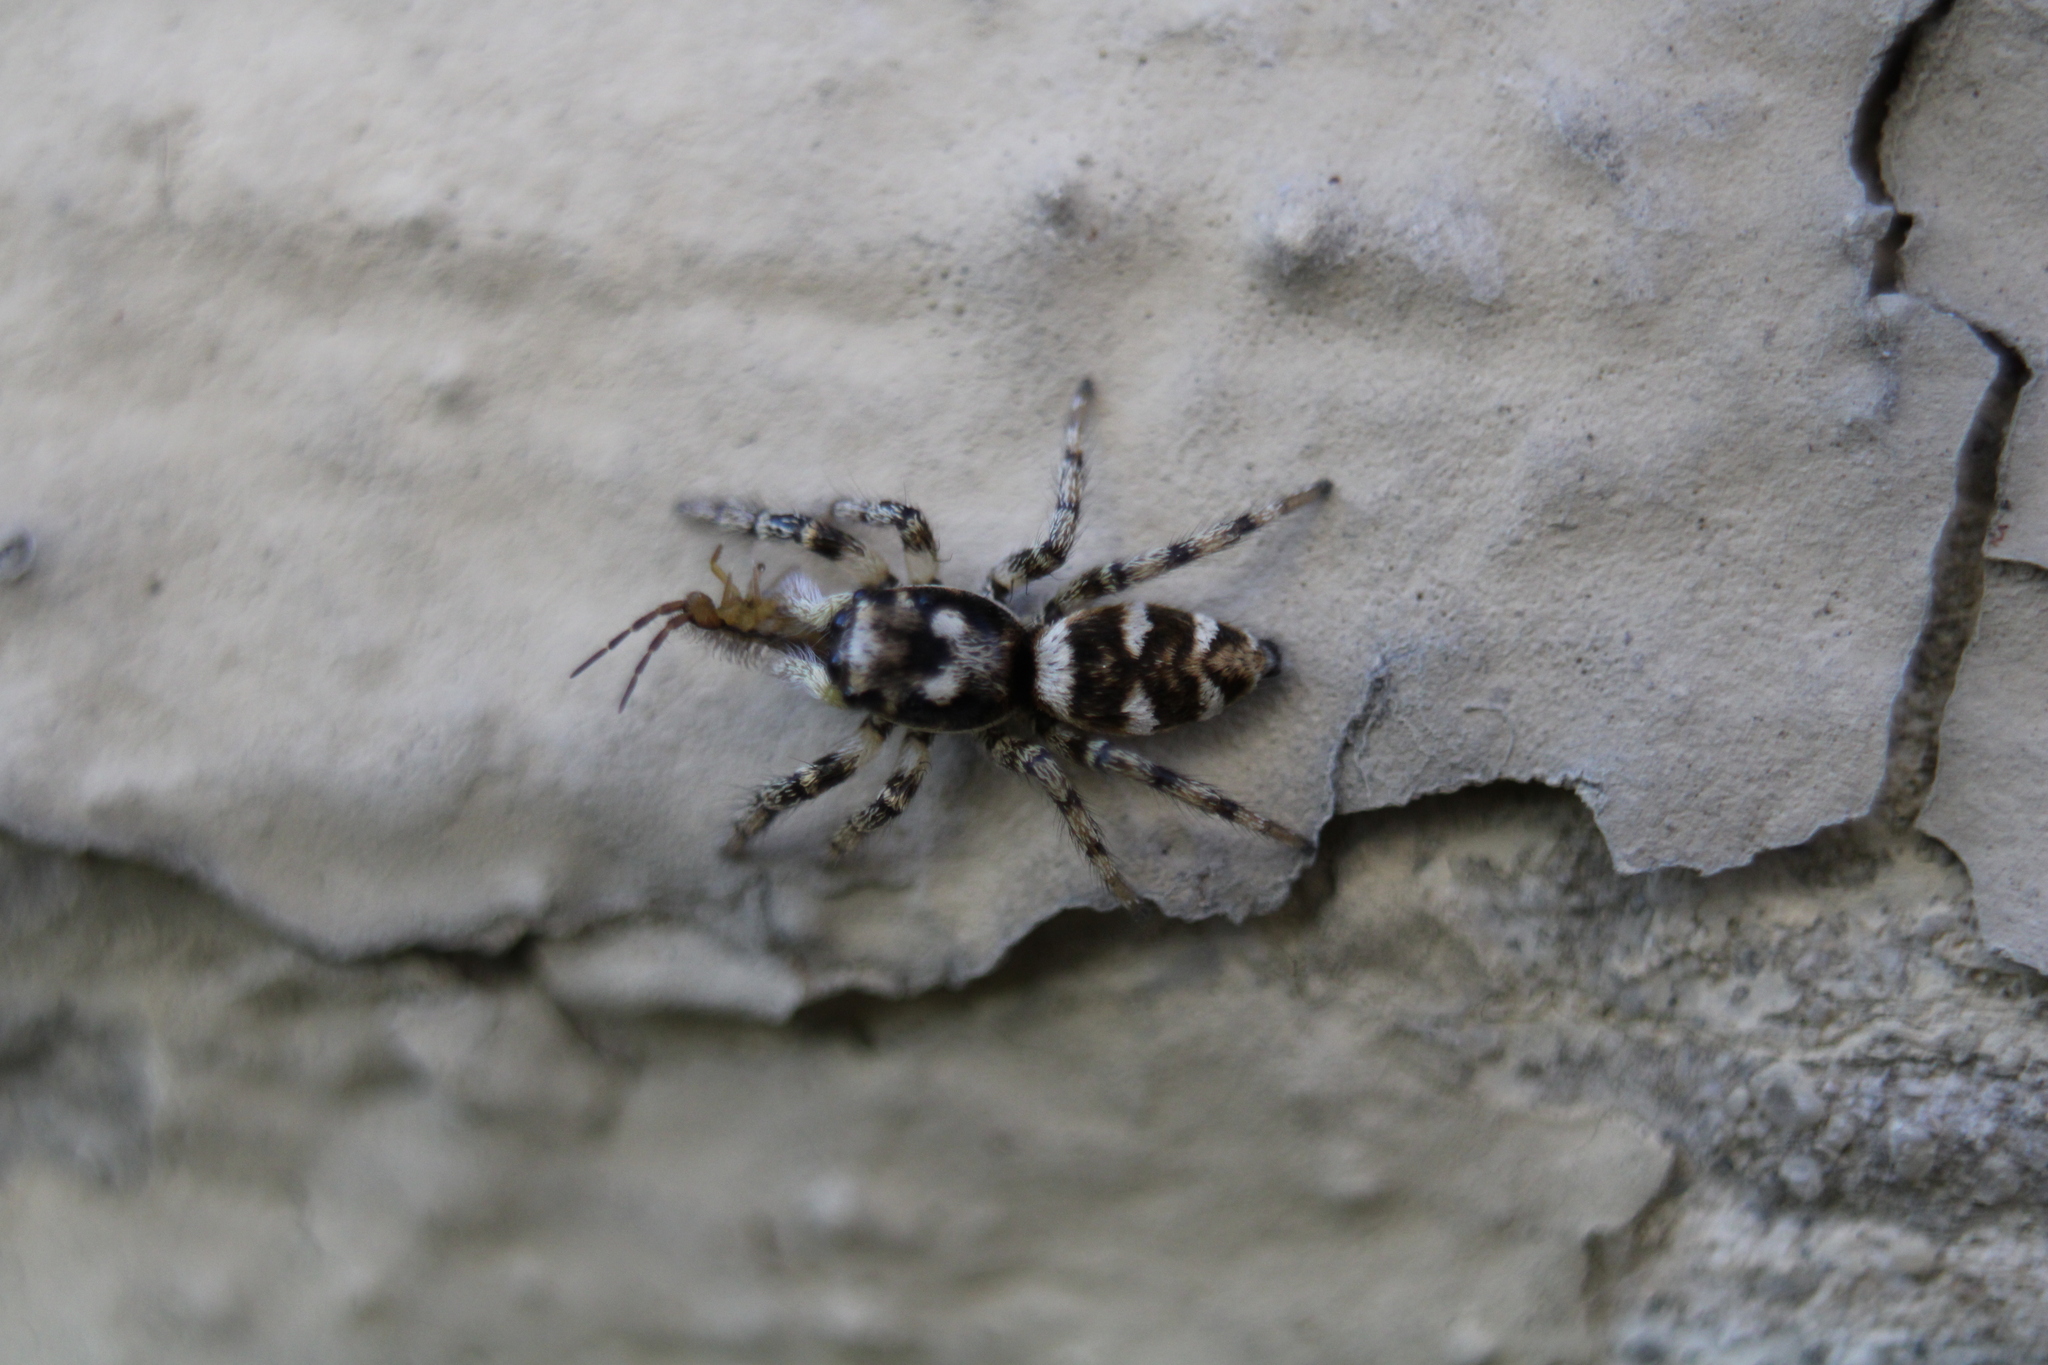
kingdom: Animalia
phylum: Arthropoda
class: Arachnida
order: Araneae
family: Salticidae
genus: Salticus
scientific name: Salticus scenicus
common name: Zebra jumper
